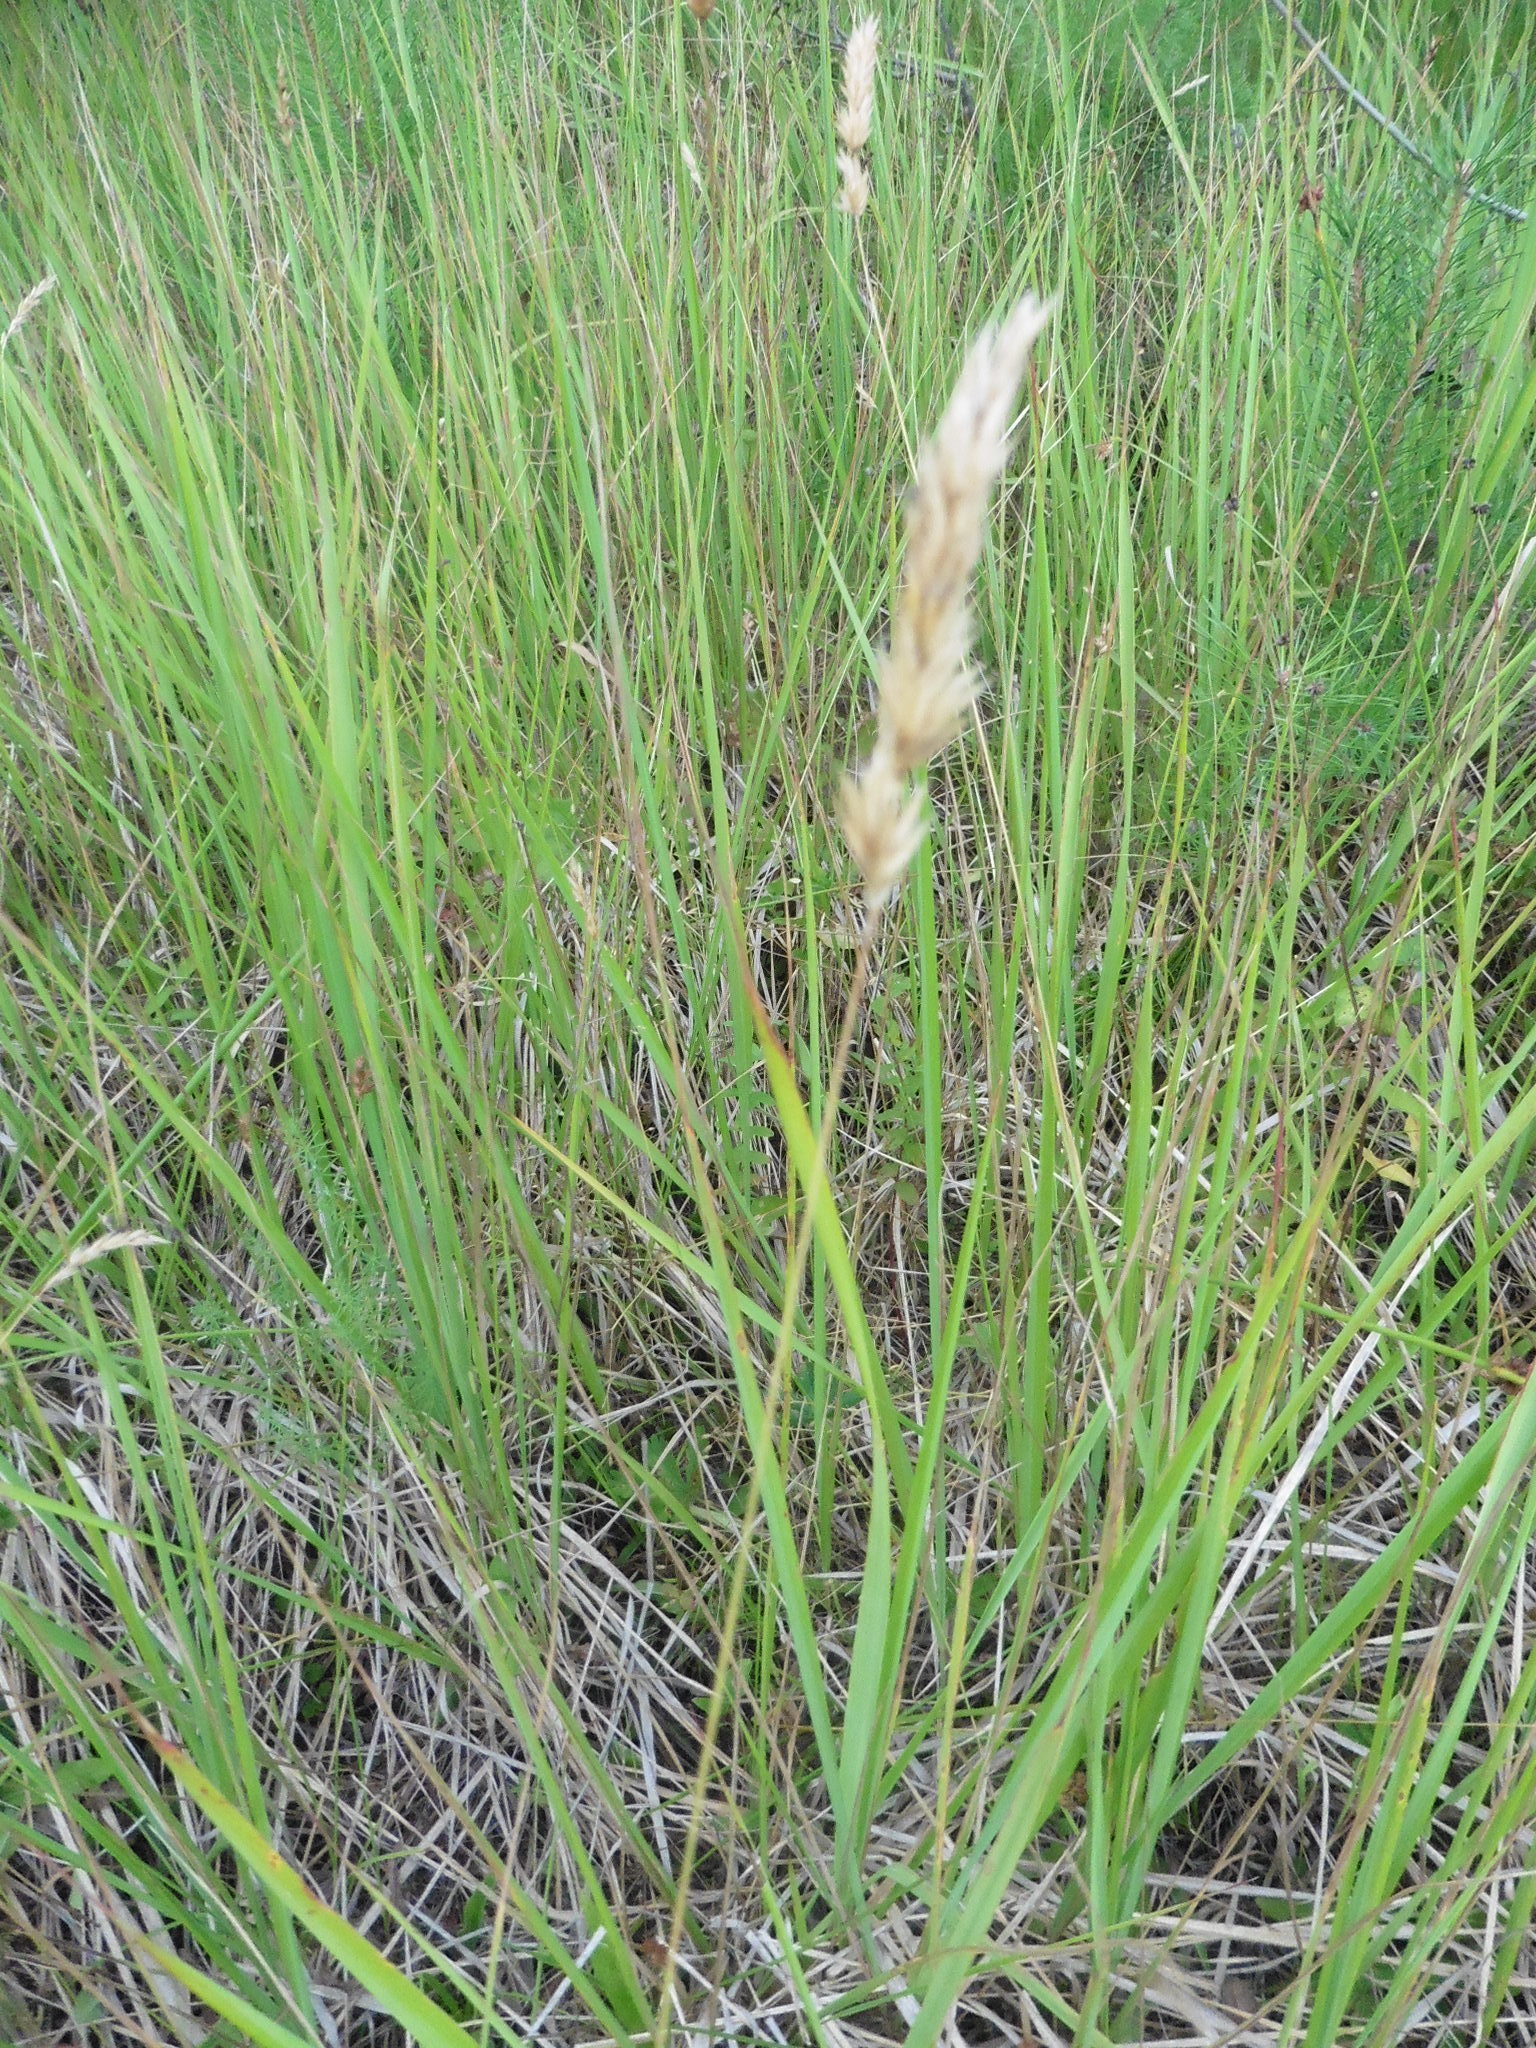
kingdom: Plantae
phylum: Tracheophyta
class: Liliopsida
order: Poales
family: Poaceae
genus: Anthoxanthum
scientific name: Anthoxanthum odoratum
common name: Sweet vernalgrass
